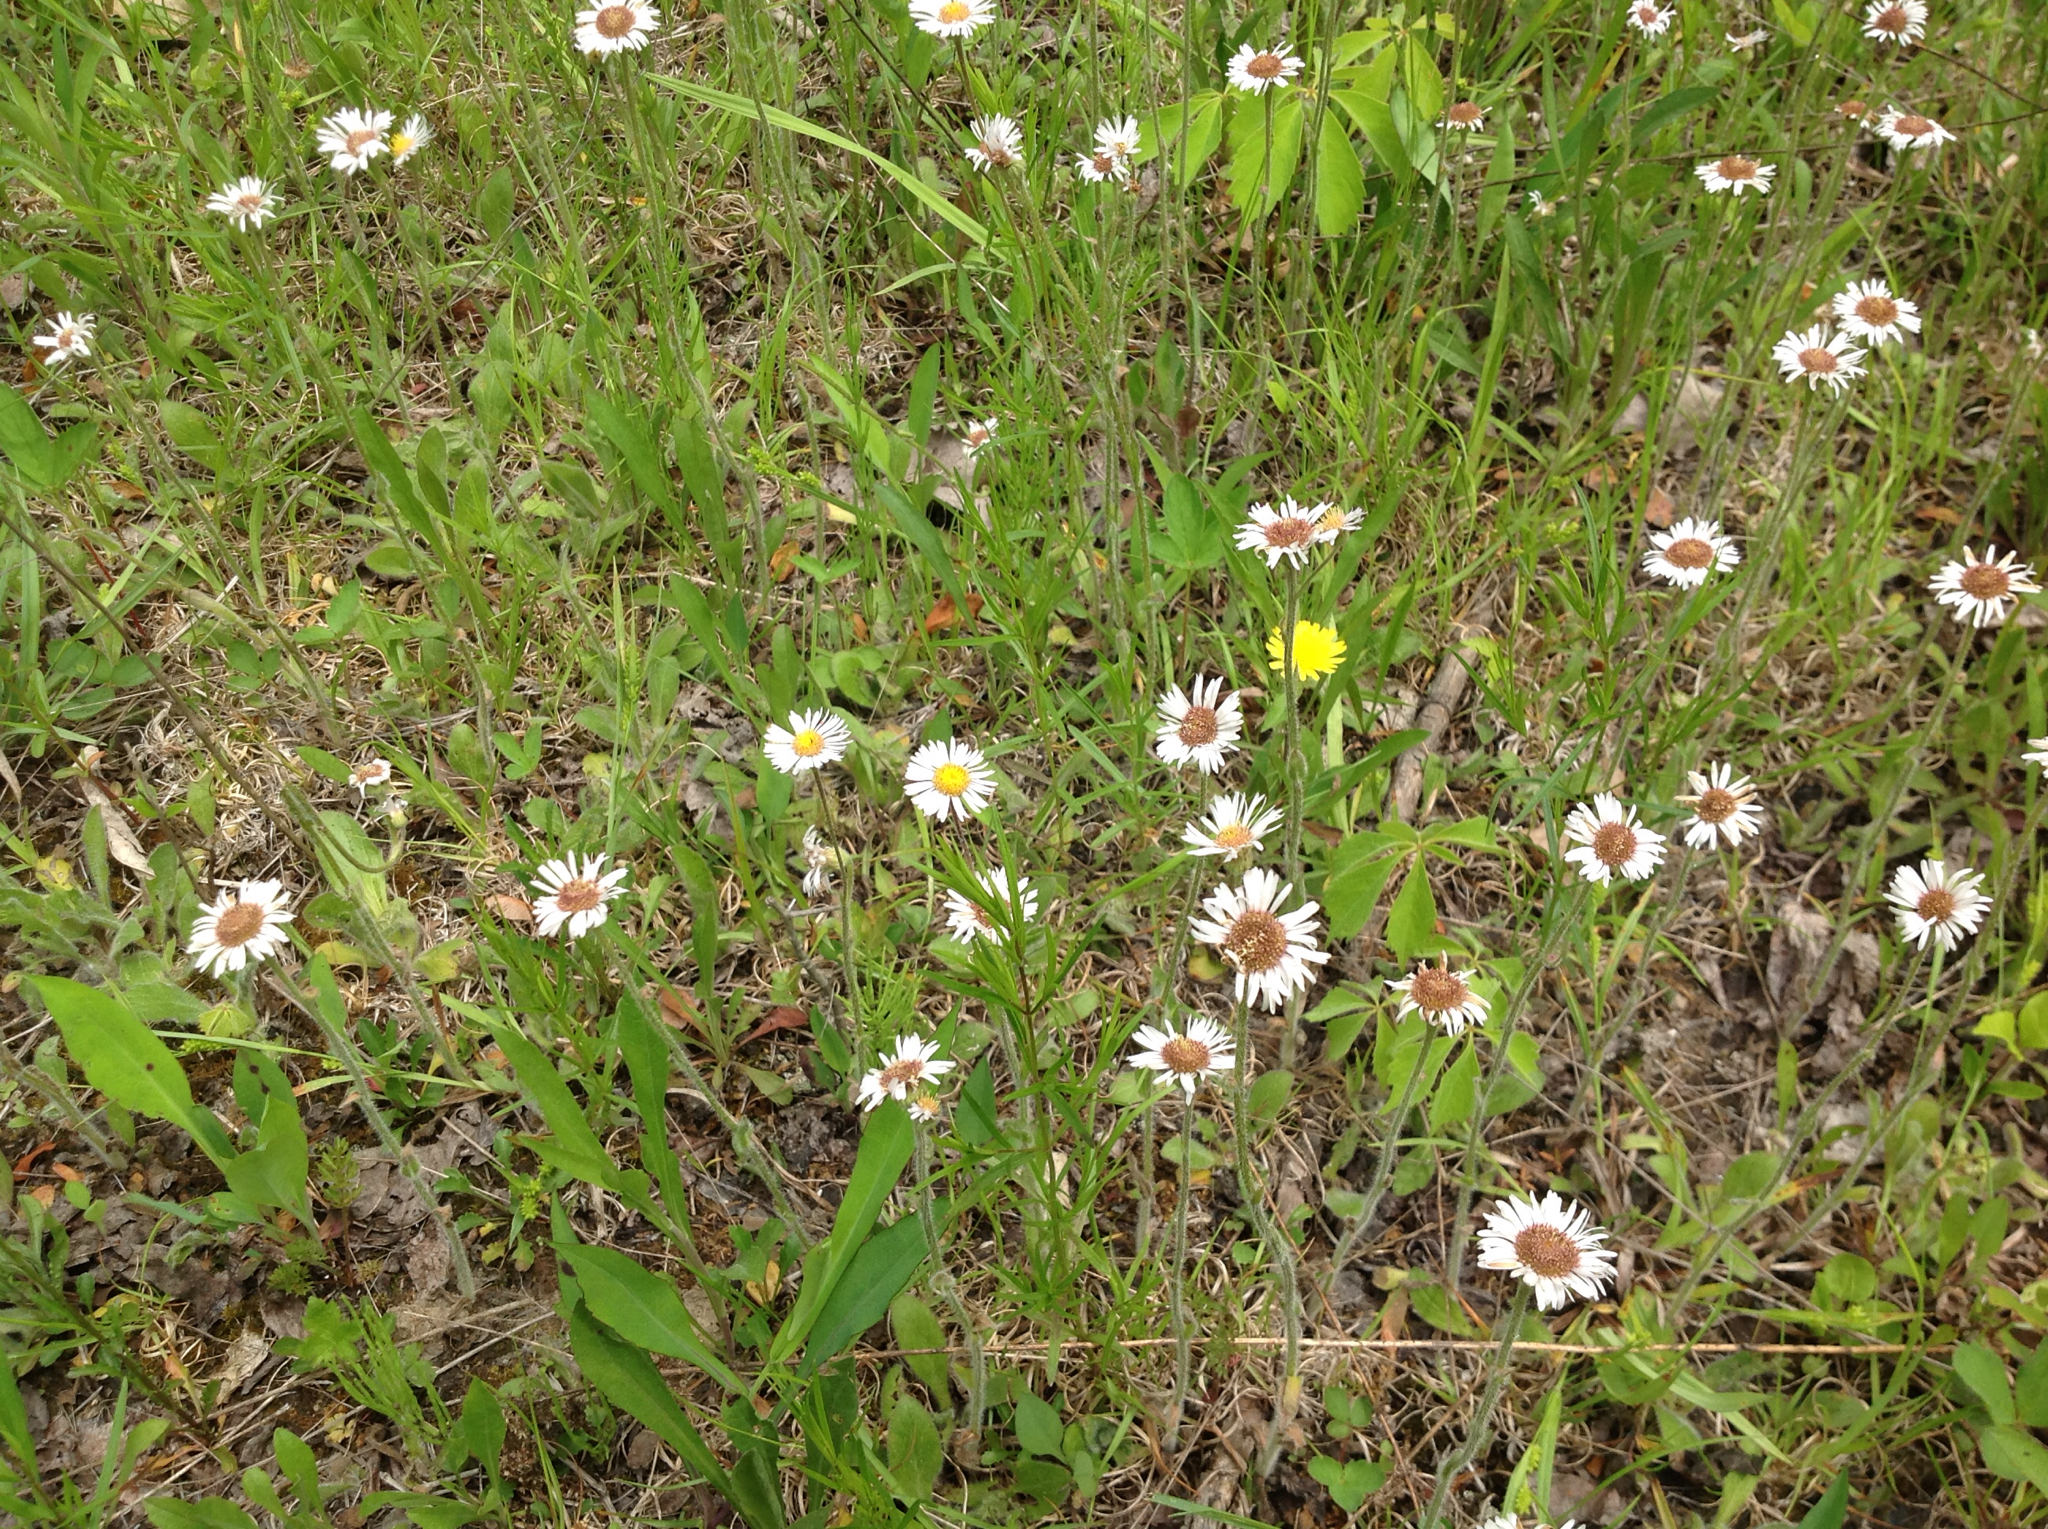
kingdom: Plantae
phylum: Tracheophyta
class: Magnoliopsida
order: Asterales
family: Asteraceae
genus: Erigeron
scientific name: Erigeron pulchellus
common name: Hairy fleabane
